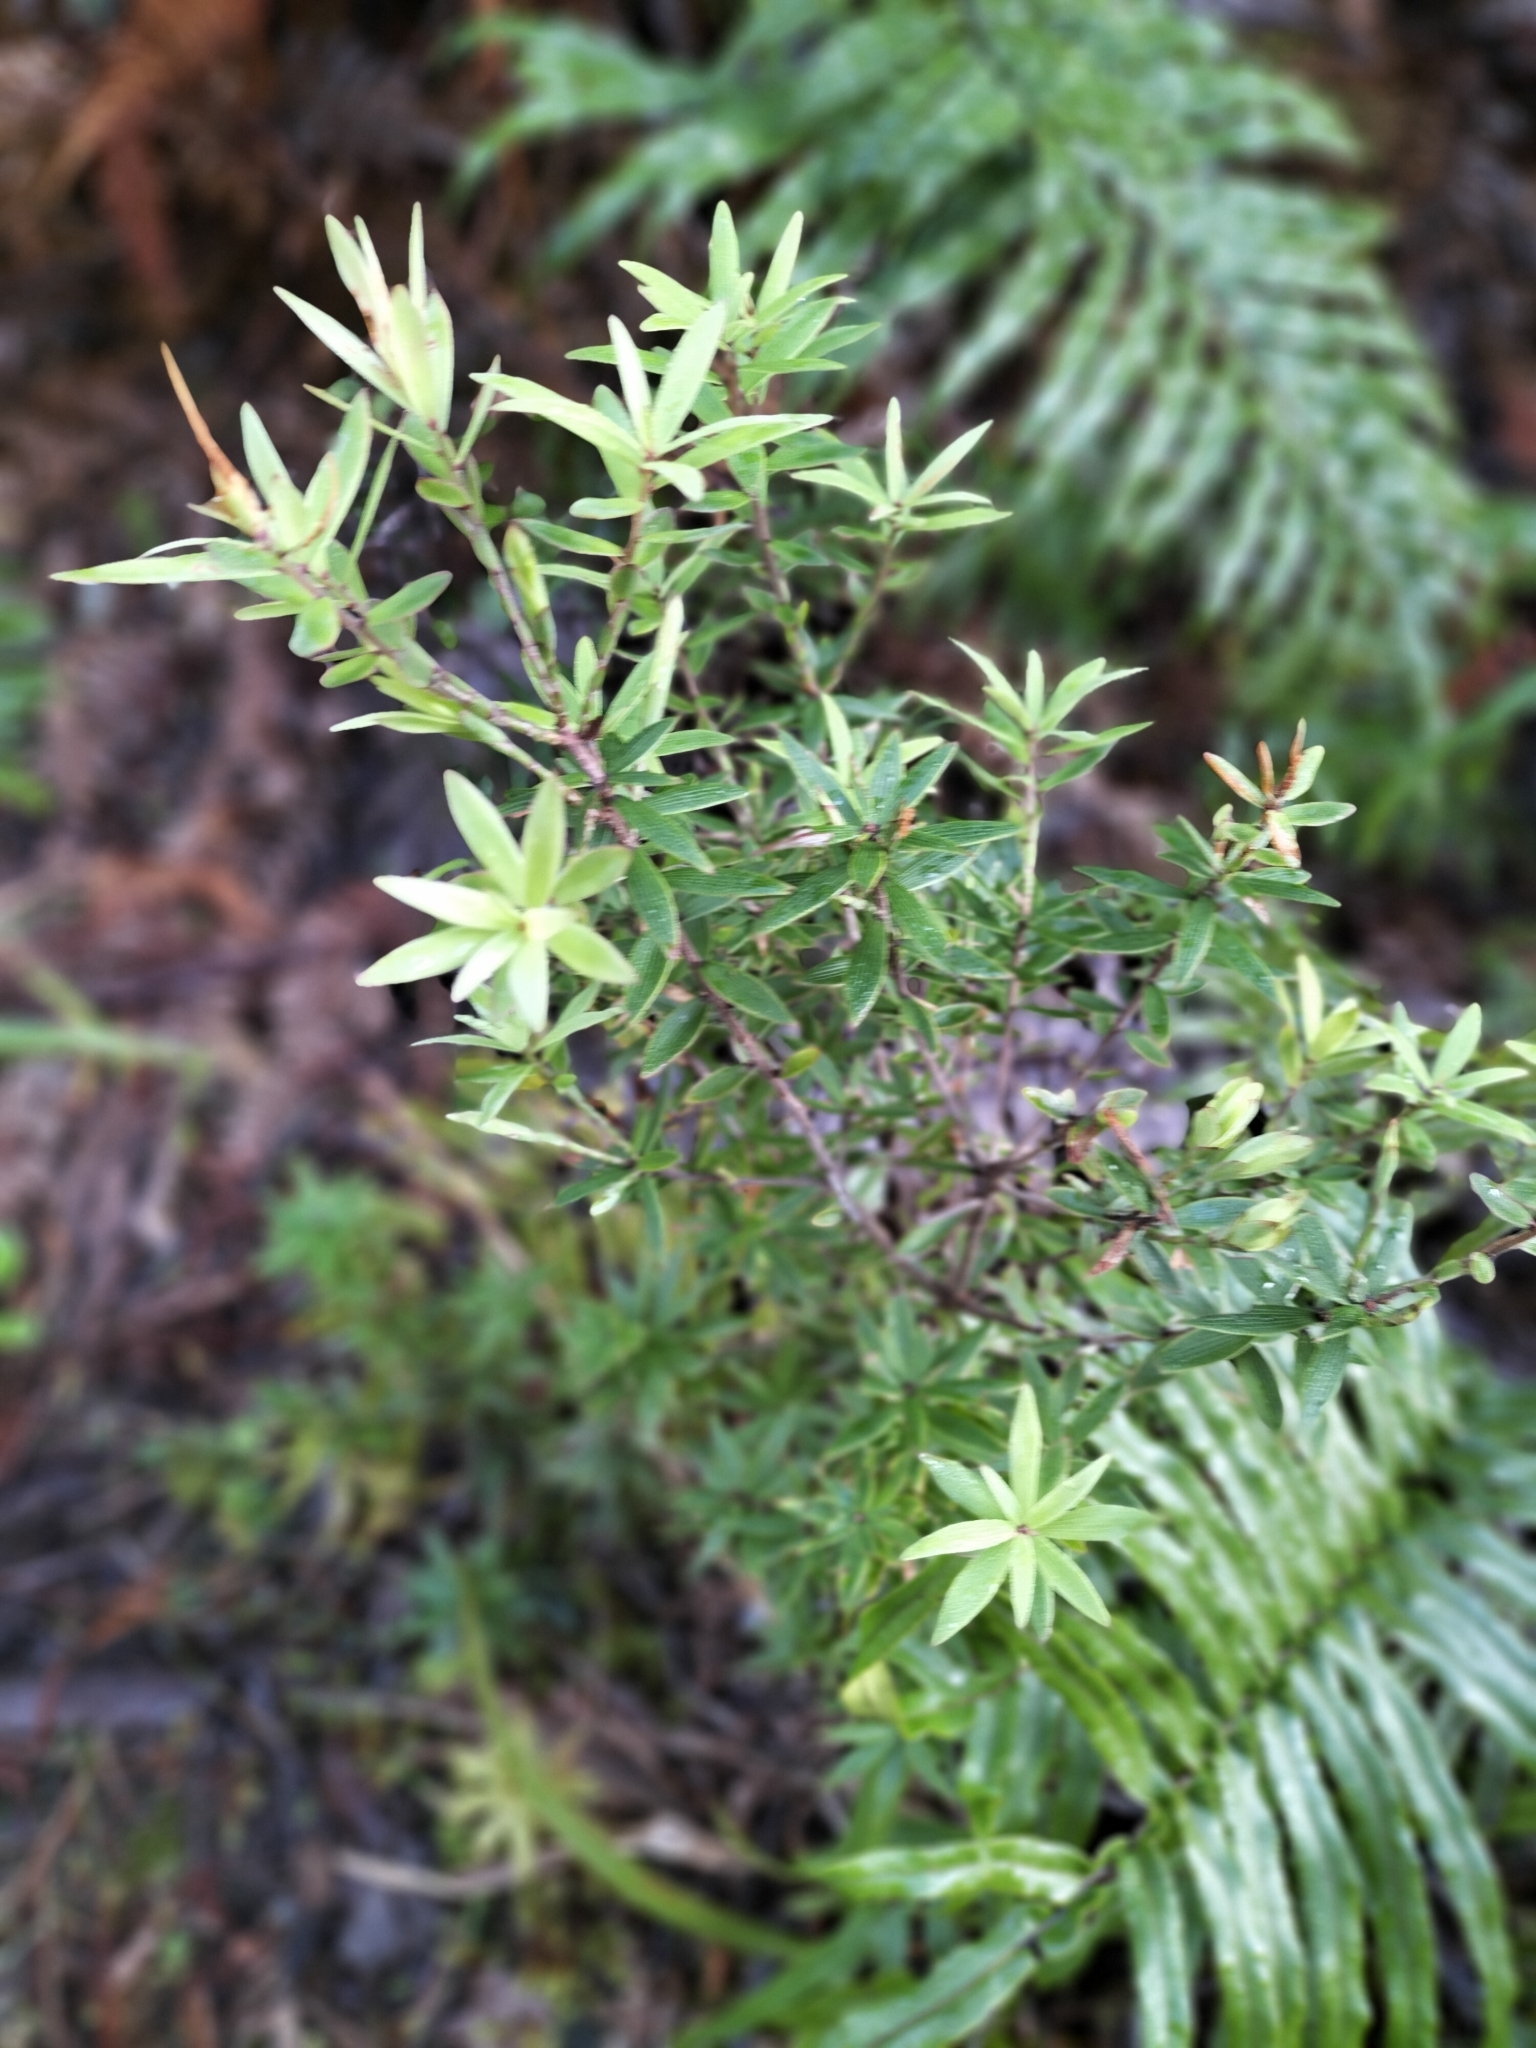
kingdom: Plantae
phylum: Tracheophyta
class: Magnoliopsida
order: Ericales
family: Ericaceae
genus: Leucopogon
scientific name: Leucopogon fasciculatus
